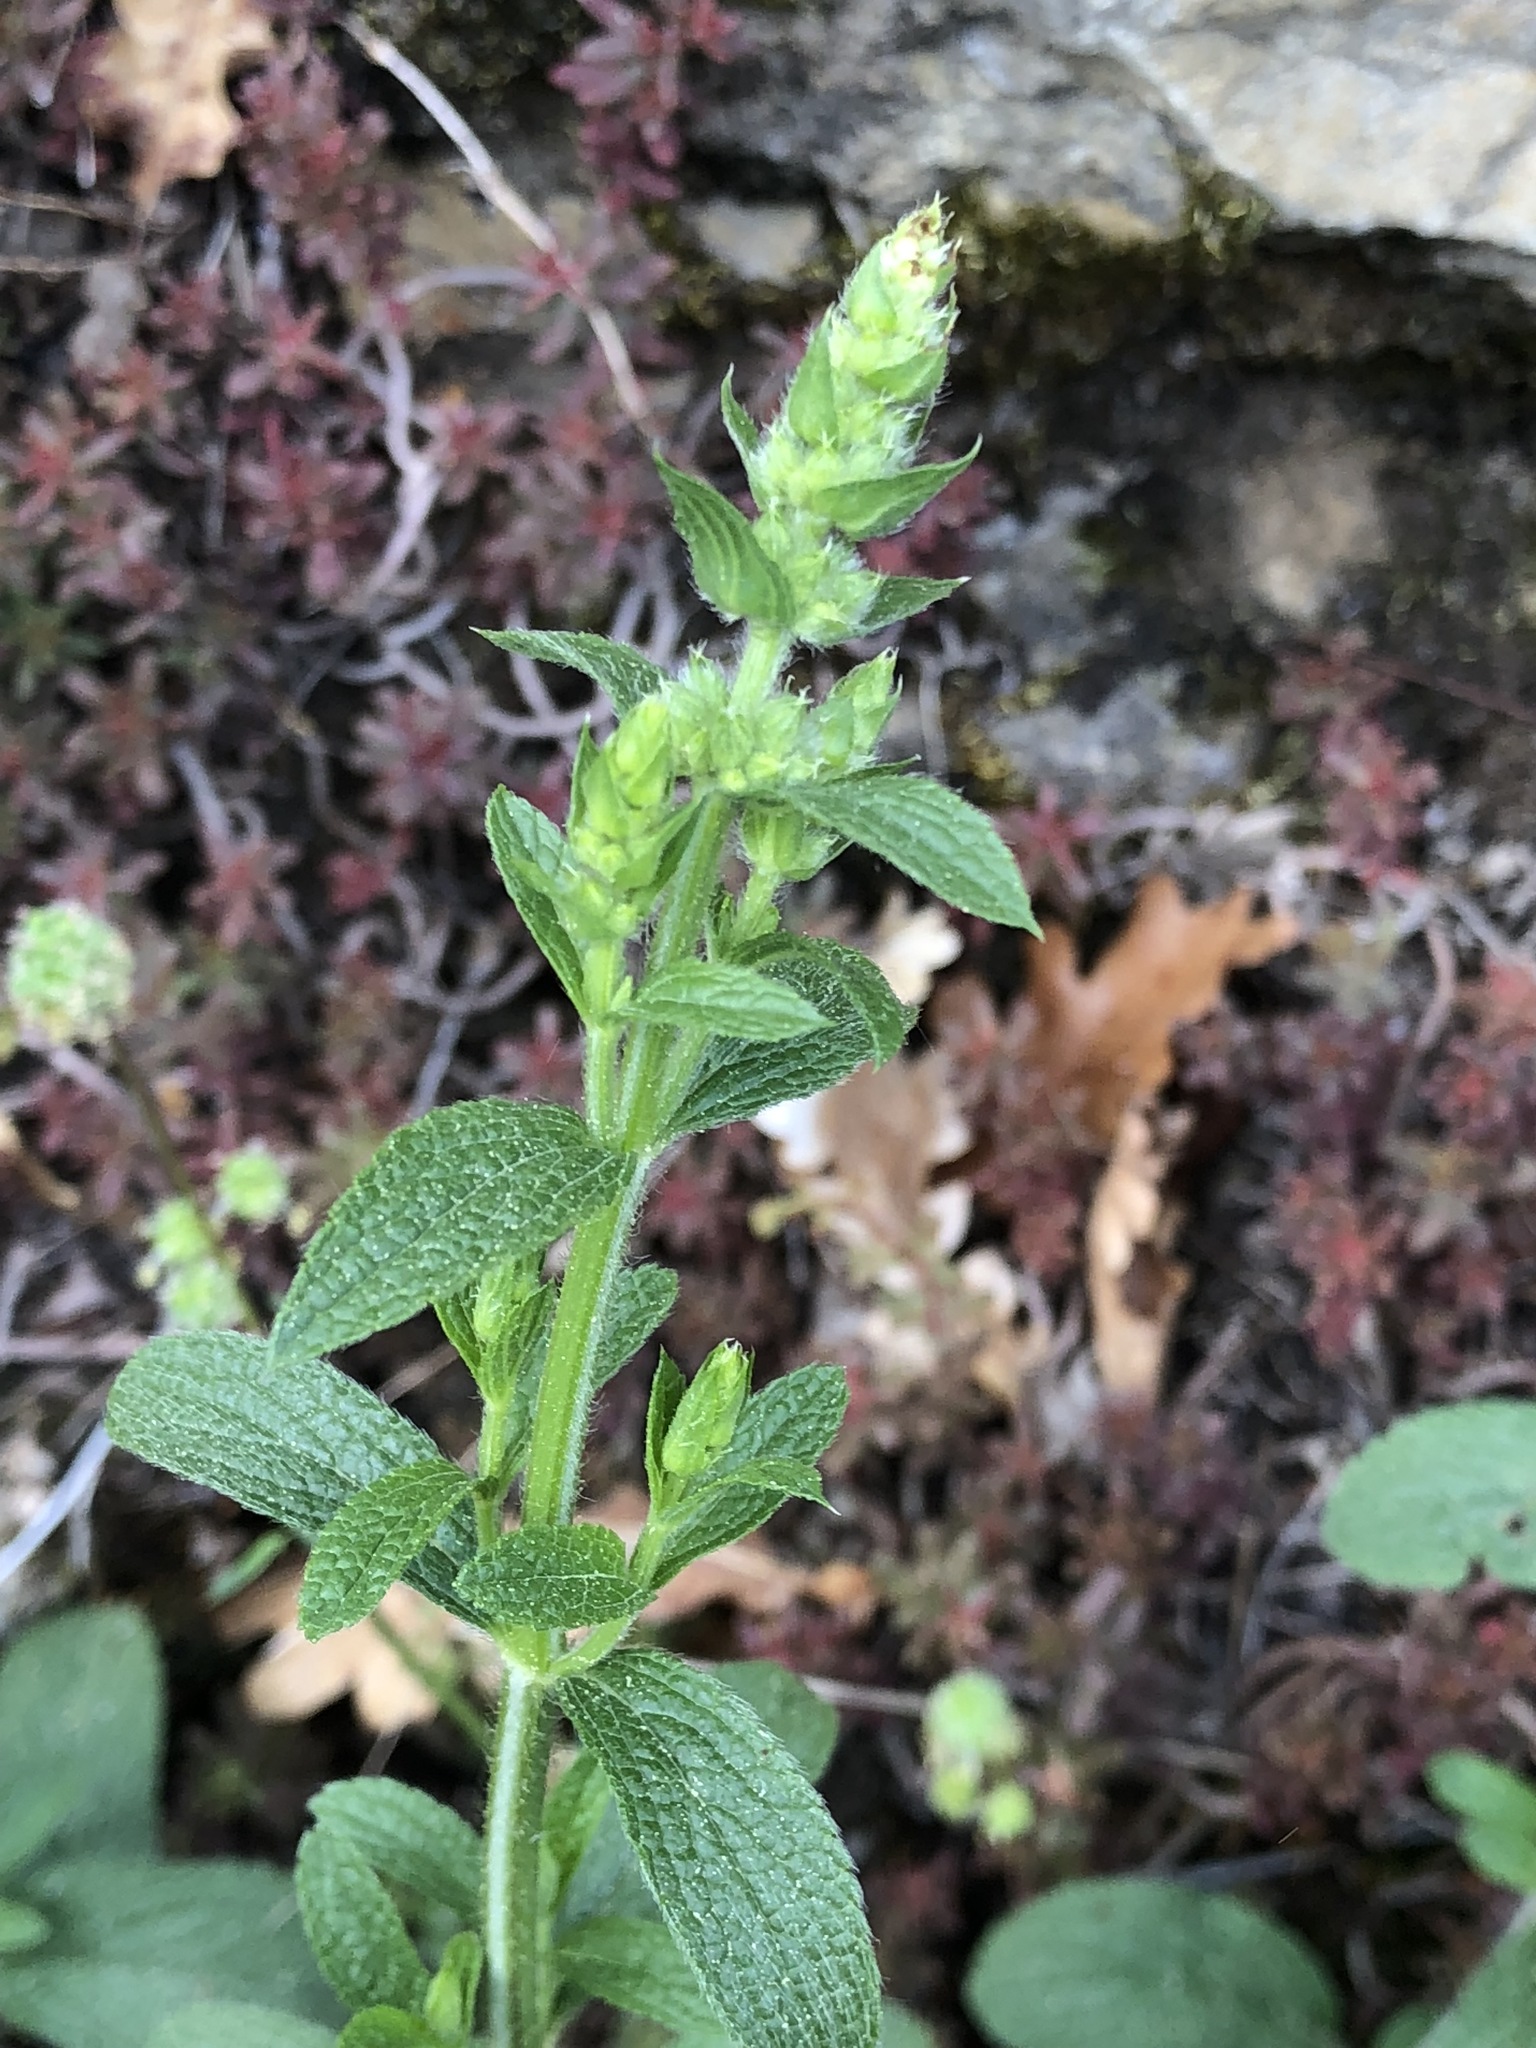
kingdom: Plantae
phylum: Tracheophyta
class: Magnoliopsida
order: Lamiales
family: Lamiaceae
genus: Stachys
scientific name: Stachys recta
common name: Perennial yellow-woundwort
